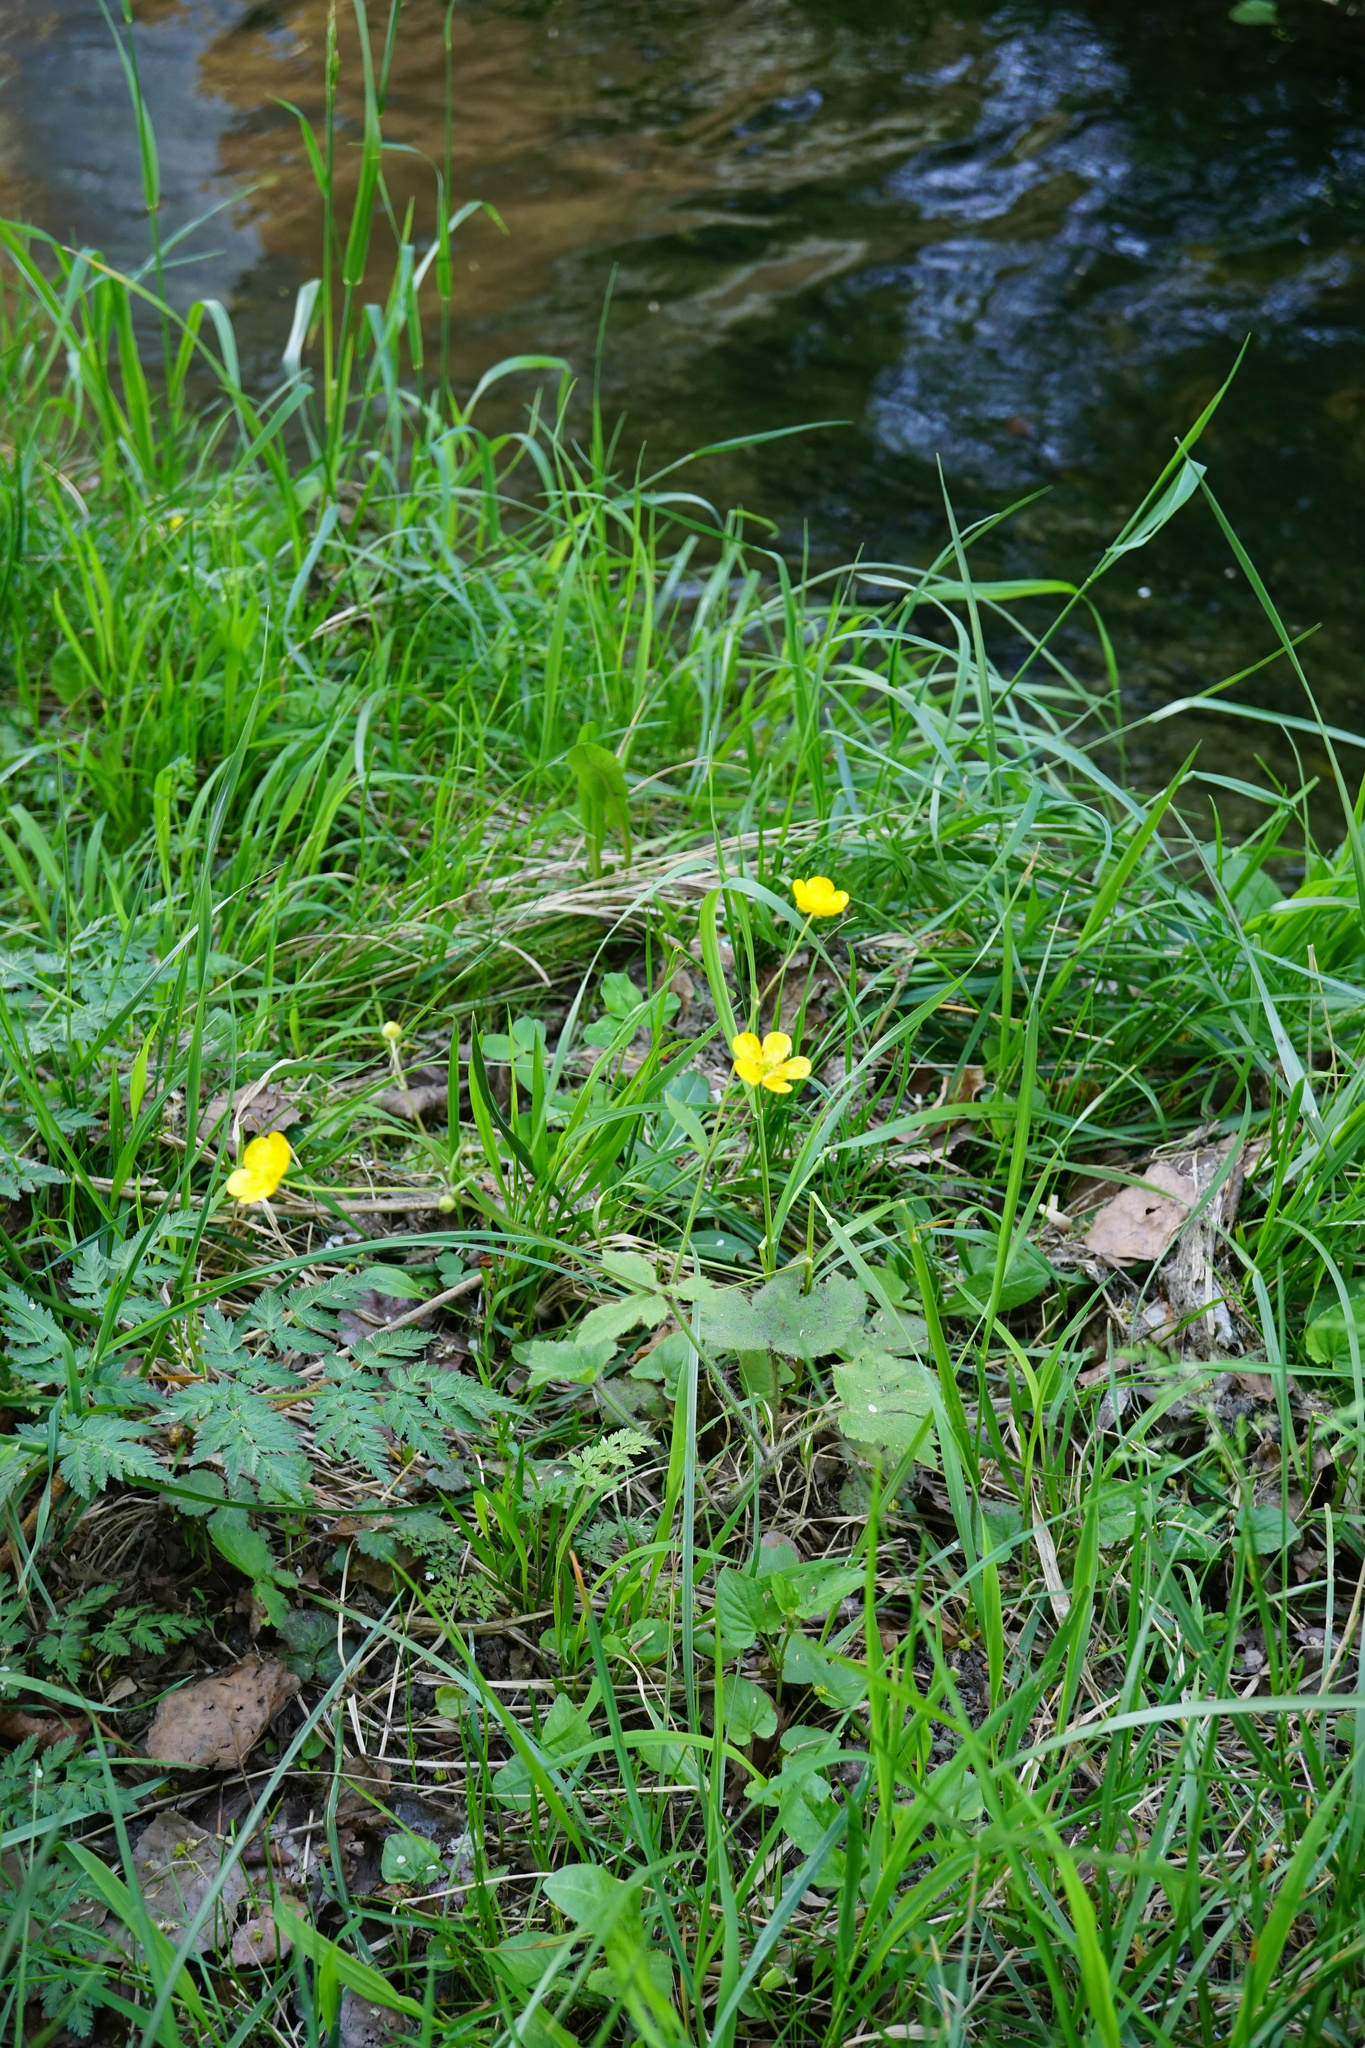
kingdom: Plantae
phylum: Tracheophyta
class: Magnoliopsida
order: Ranunculales
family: Ranunculaceae
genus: Ranunculus
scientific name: Ranunculus lanuginosus
